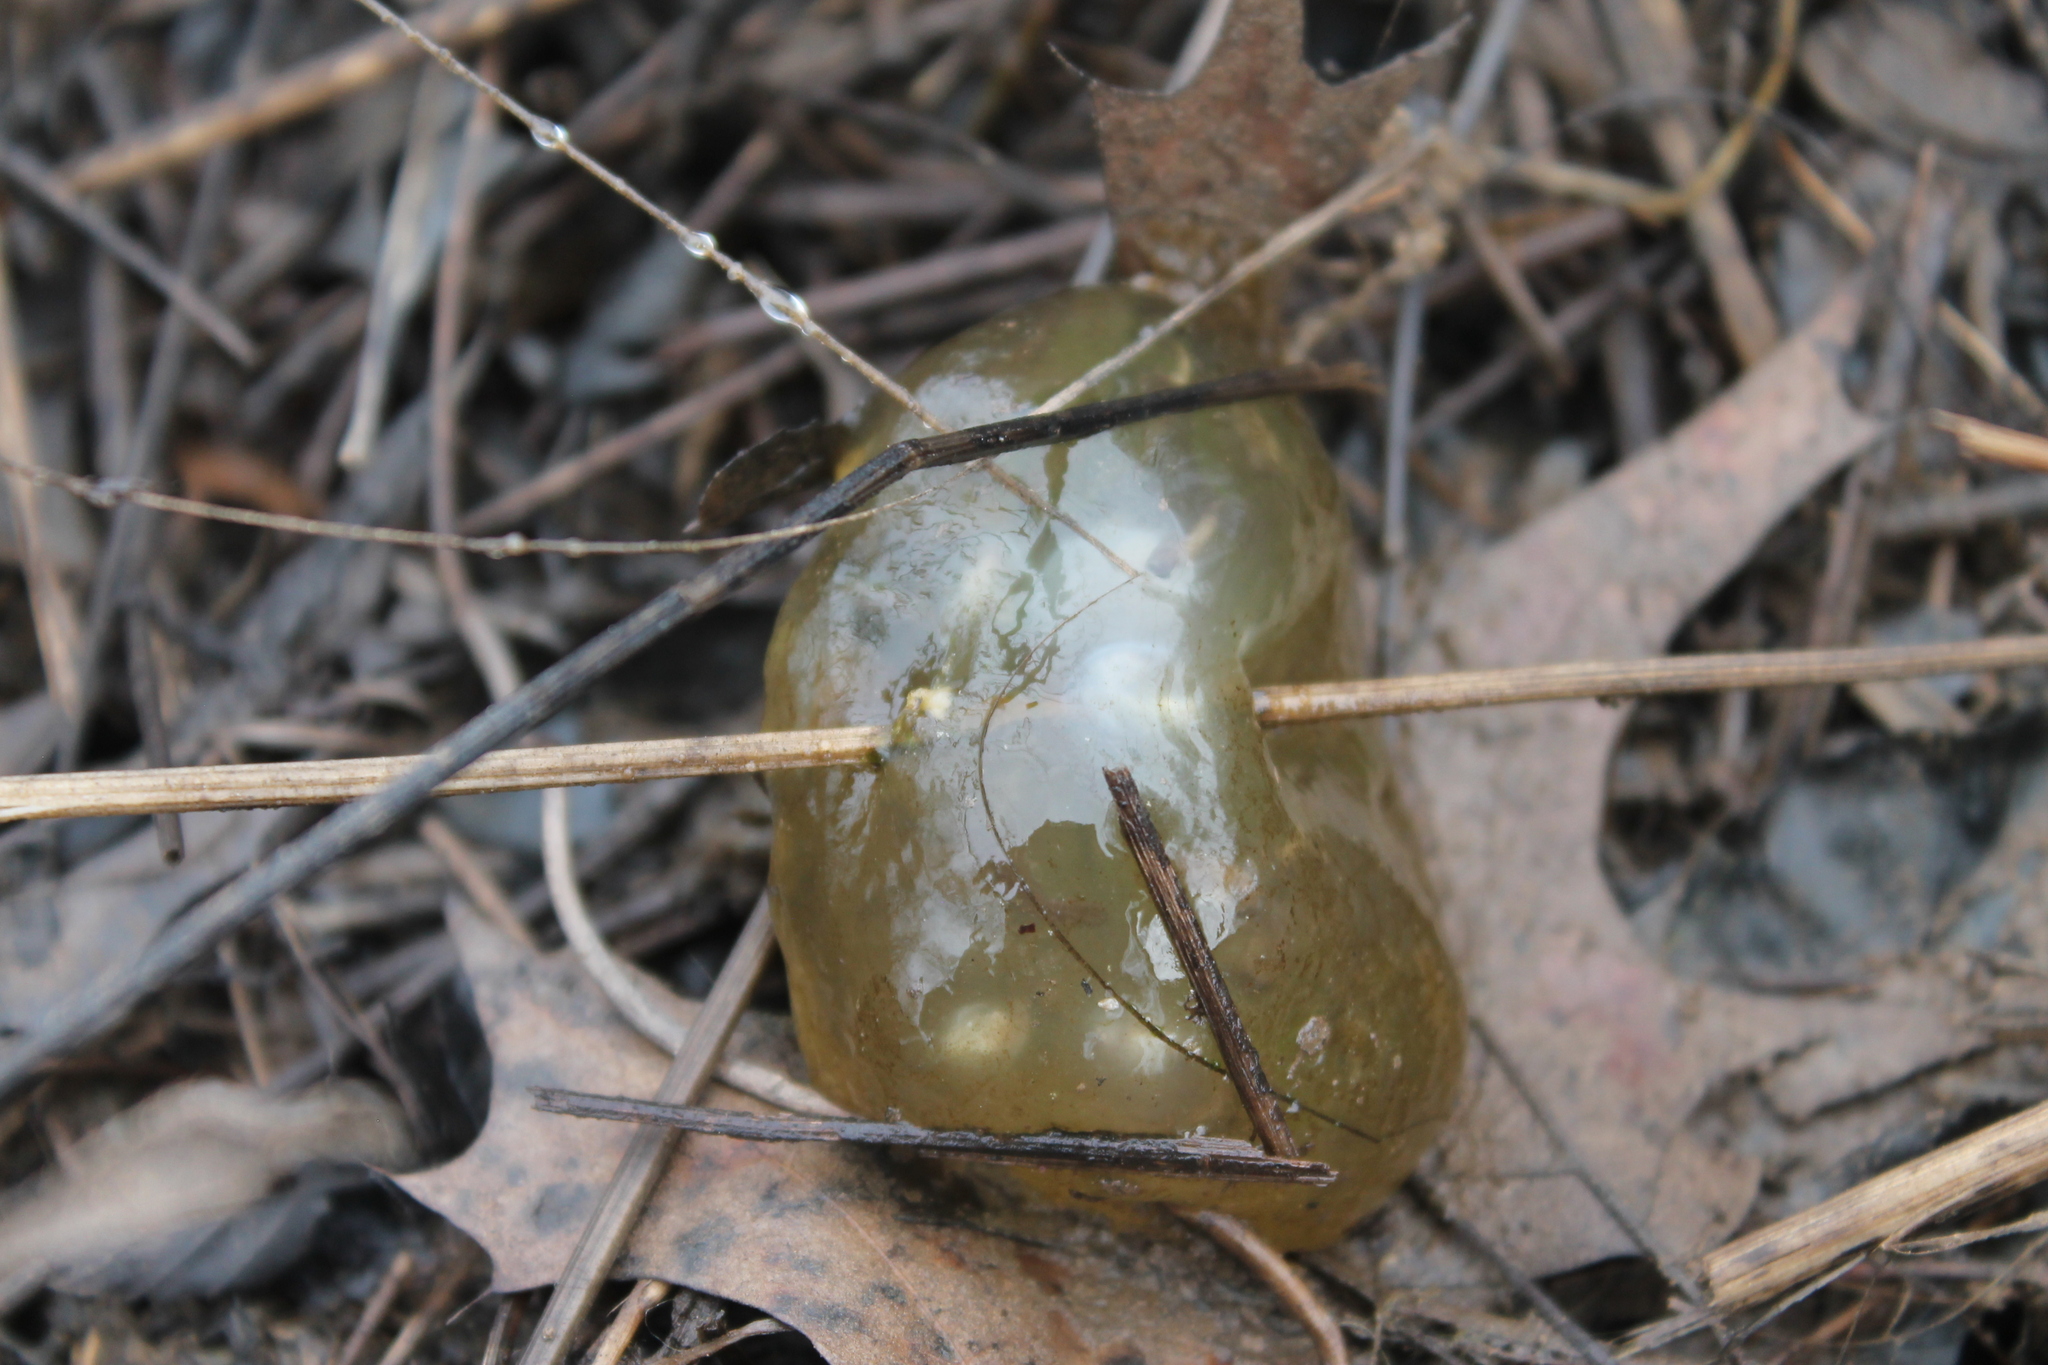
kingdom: Animalia
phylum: Chordata
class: Amphibia
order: Caudata
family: Ambystomatidae
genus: Ambystoma
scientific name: Ambystoma maculatum
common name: Spotted salamander
